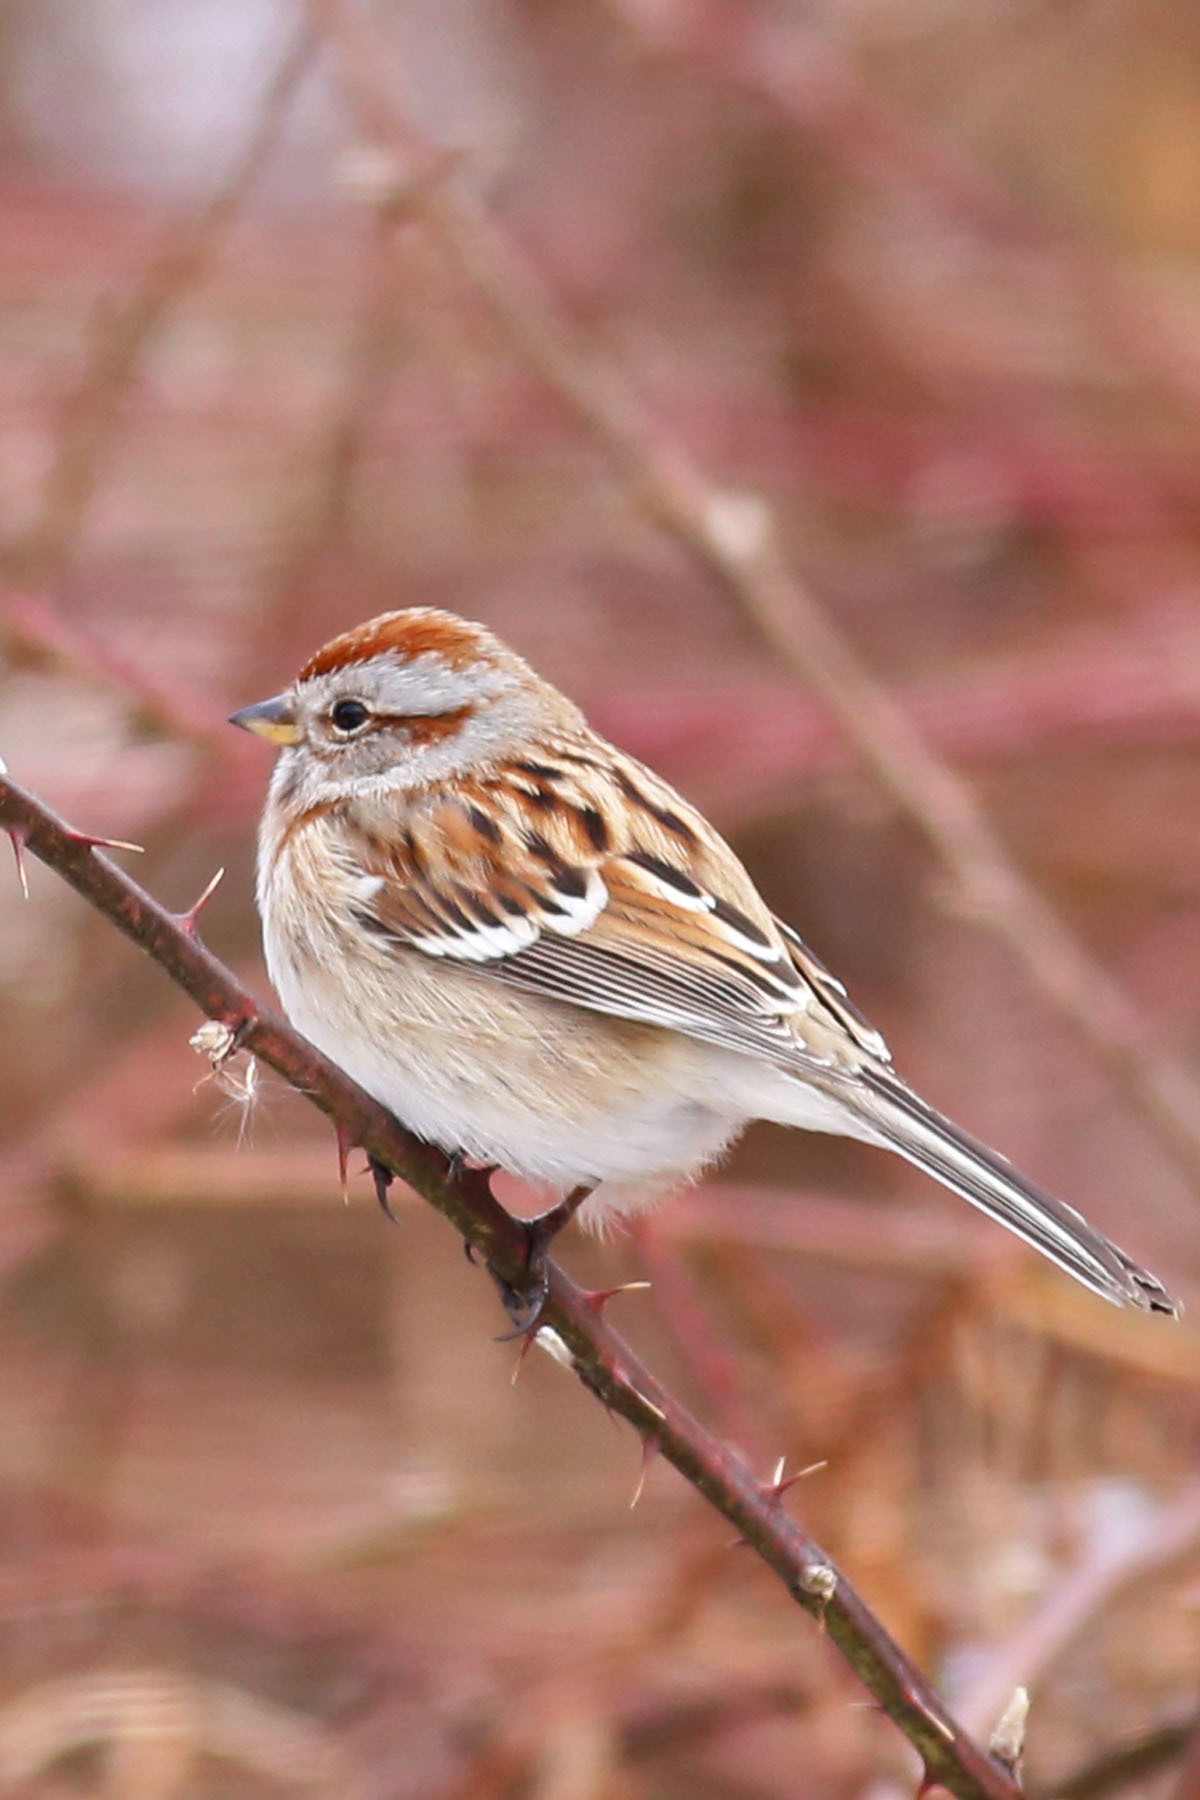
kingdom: Animalia
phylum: Chordata
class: Aves
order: Passeriformes
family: Passerellidae
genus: Spizelloides
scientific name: Spizelloides arborea
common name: American tree sparrow
